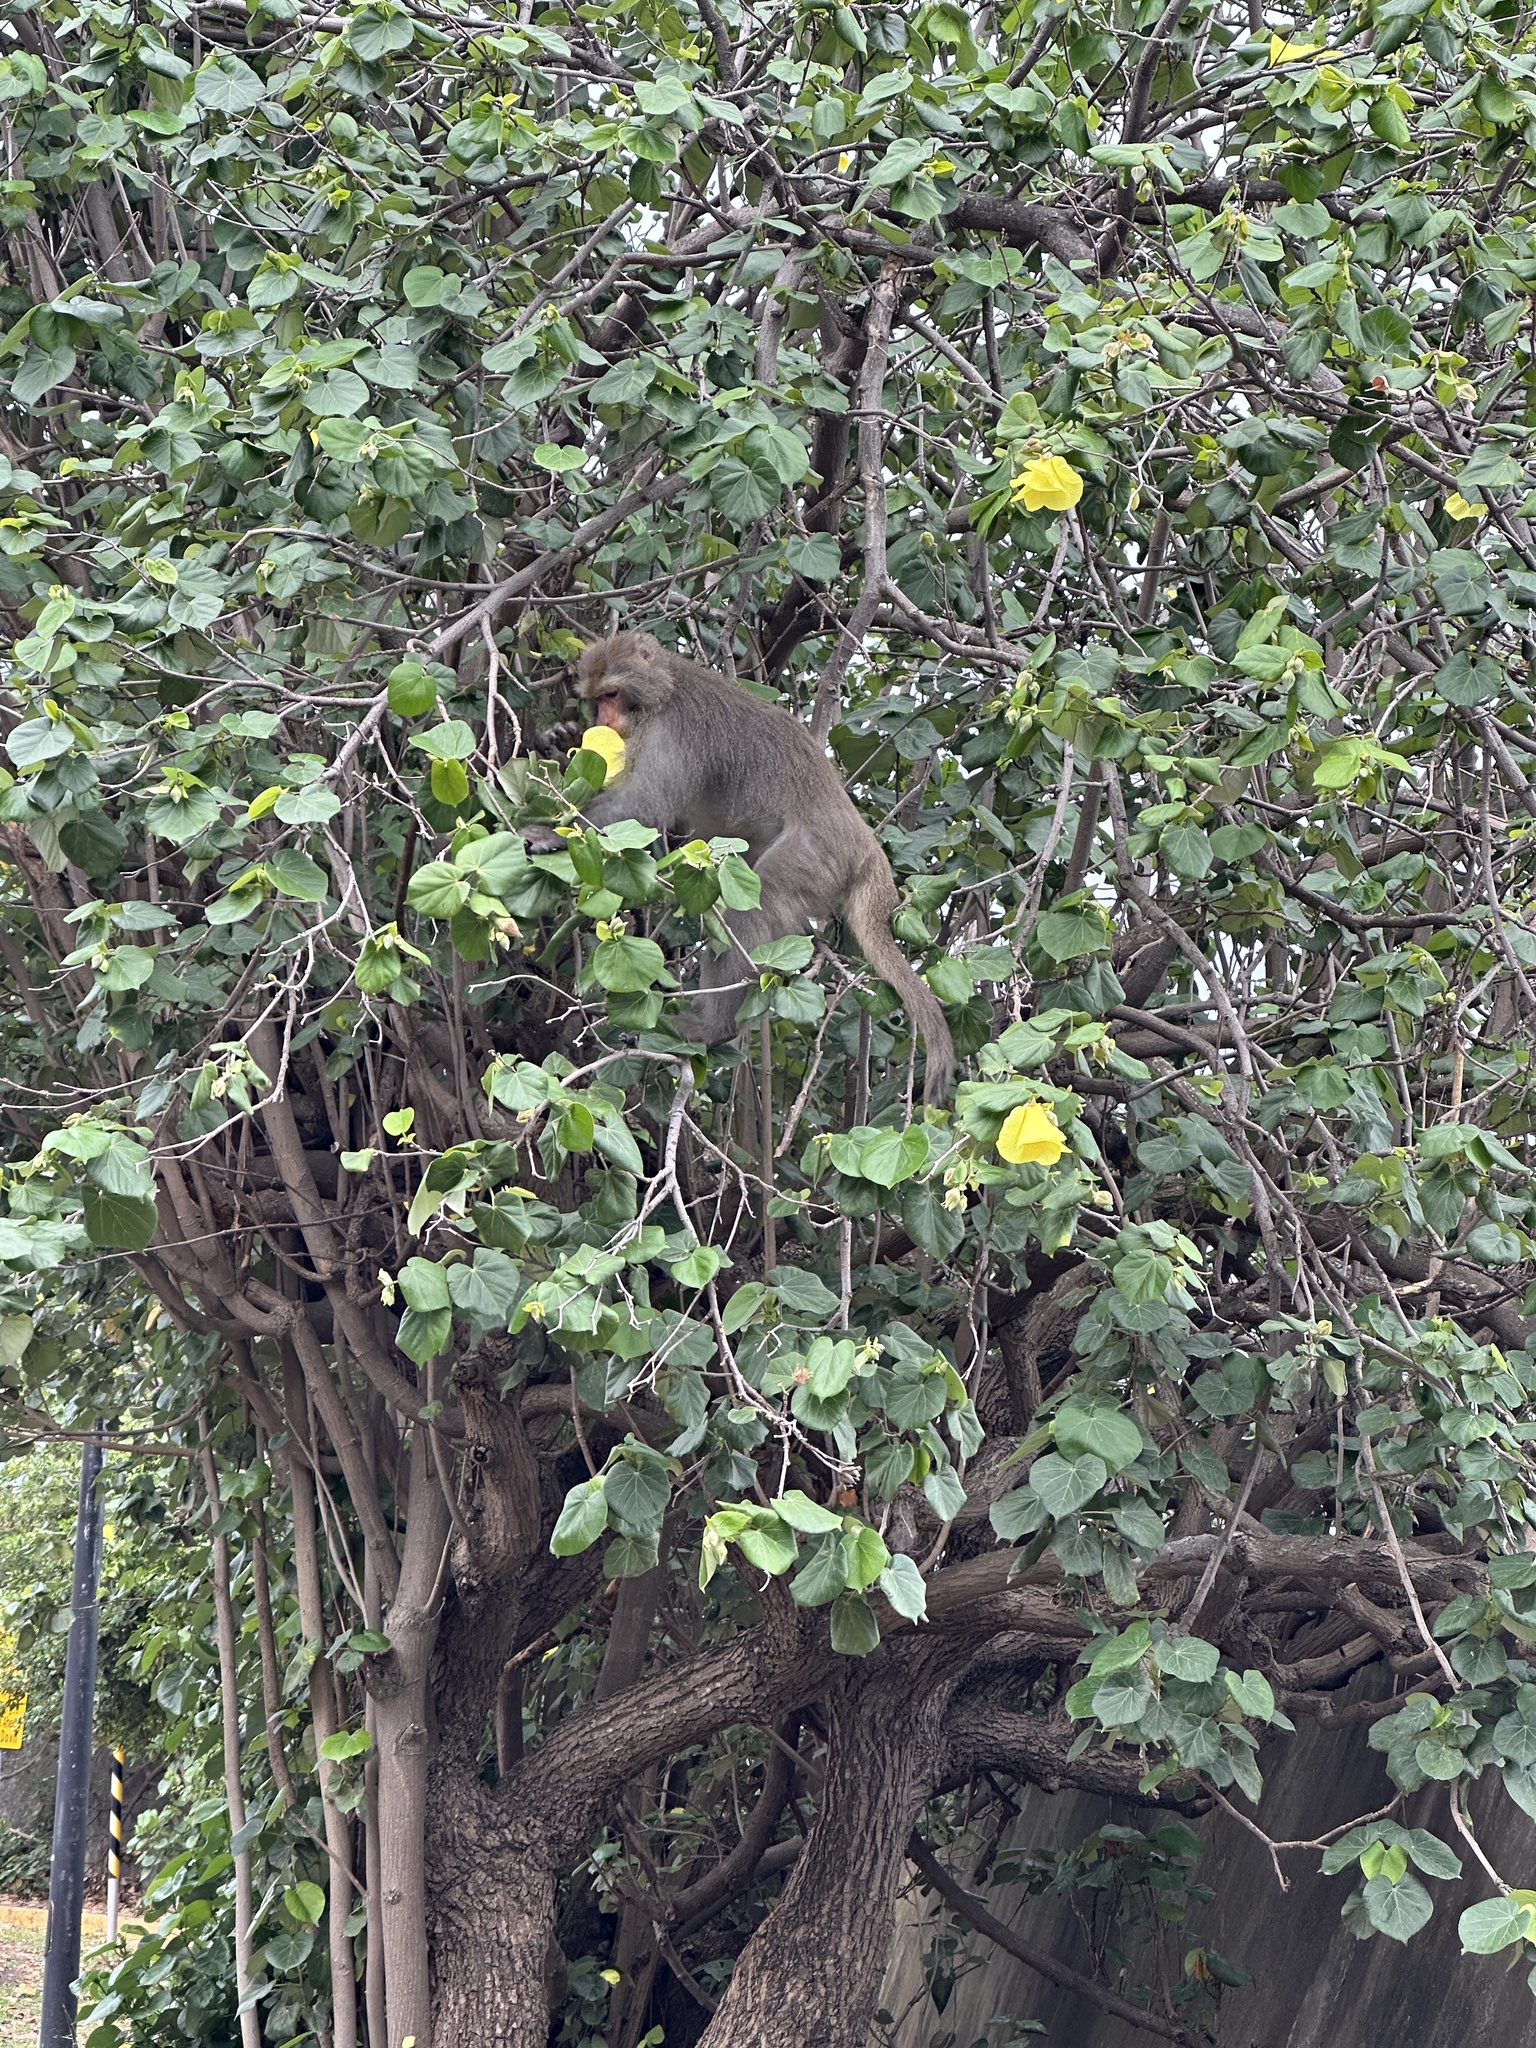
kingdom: Animalia
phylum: Chordata
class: Mammalia
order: Primates
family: Cercopithecidae
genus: Macaca
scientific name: Macaca cyclopis
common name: Formosan rock macaque
